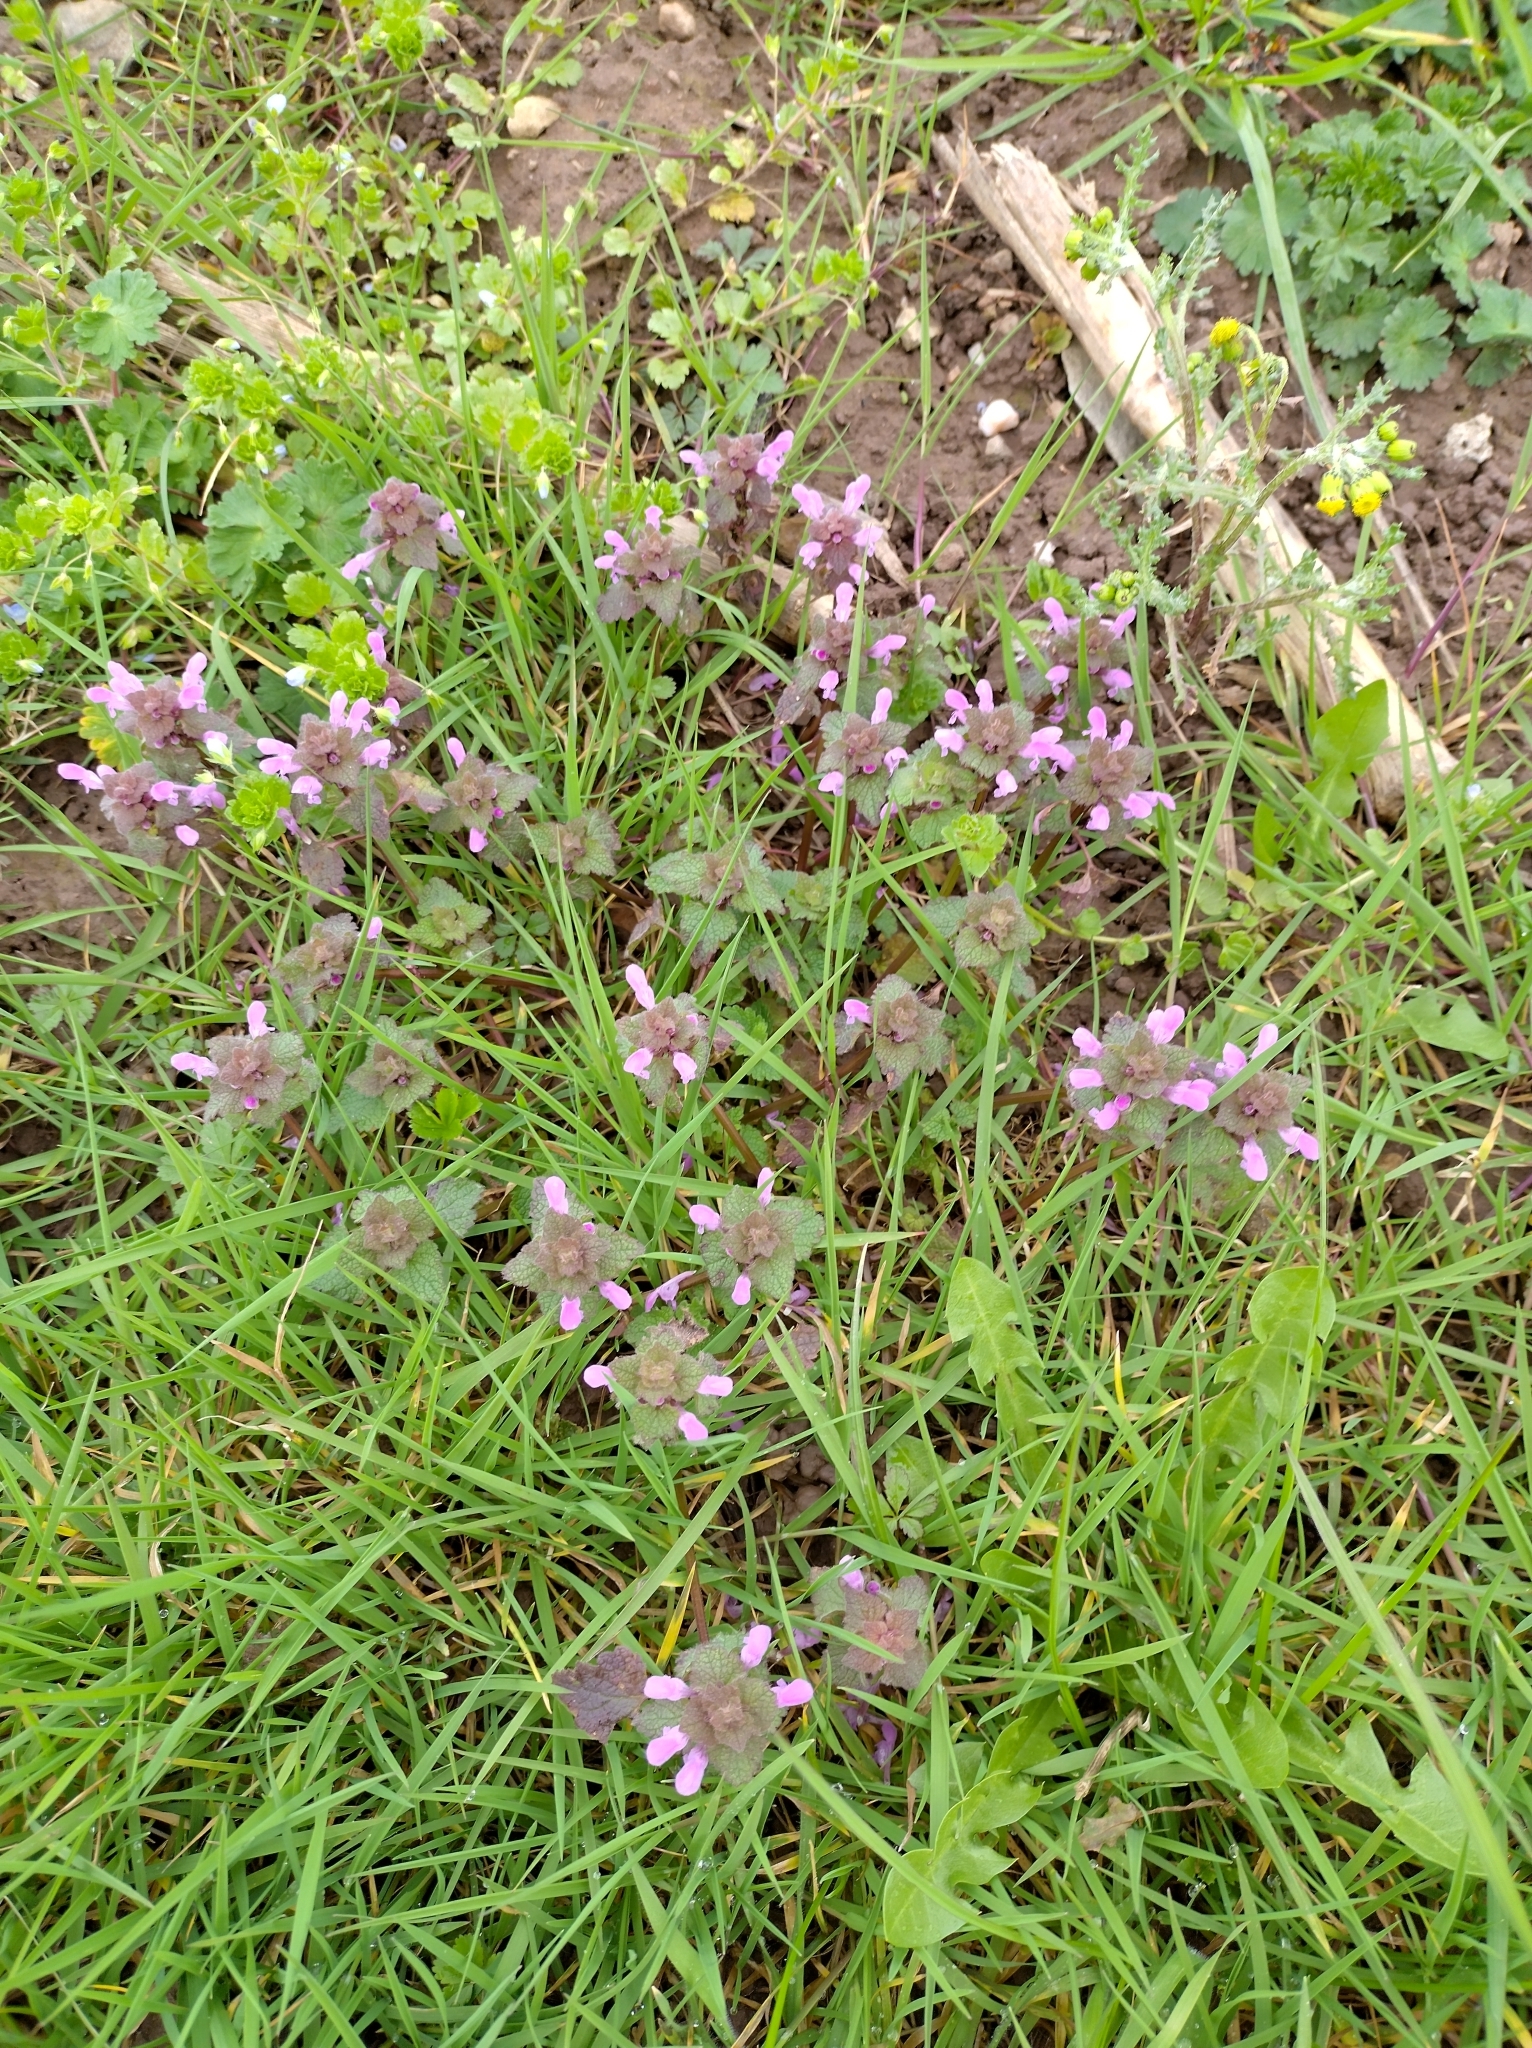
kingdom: Plantae
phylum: Tracheophyta
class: Magnoliopsida
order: Lamiales
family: Lamiaceae
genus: Lamium
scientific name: Lamium purpureum
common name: Red dead-nettle
